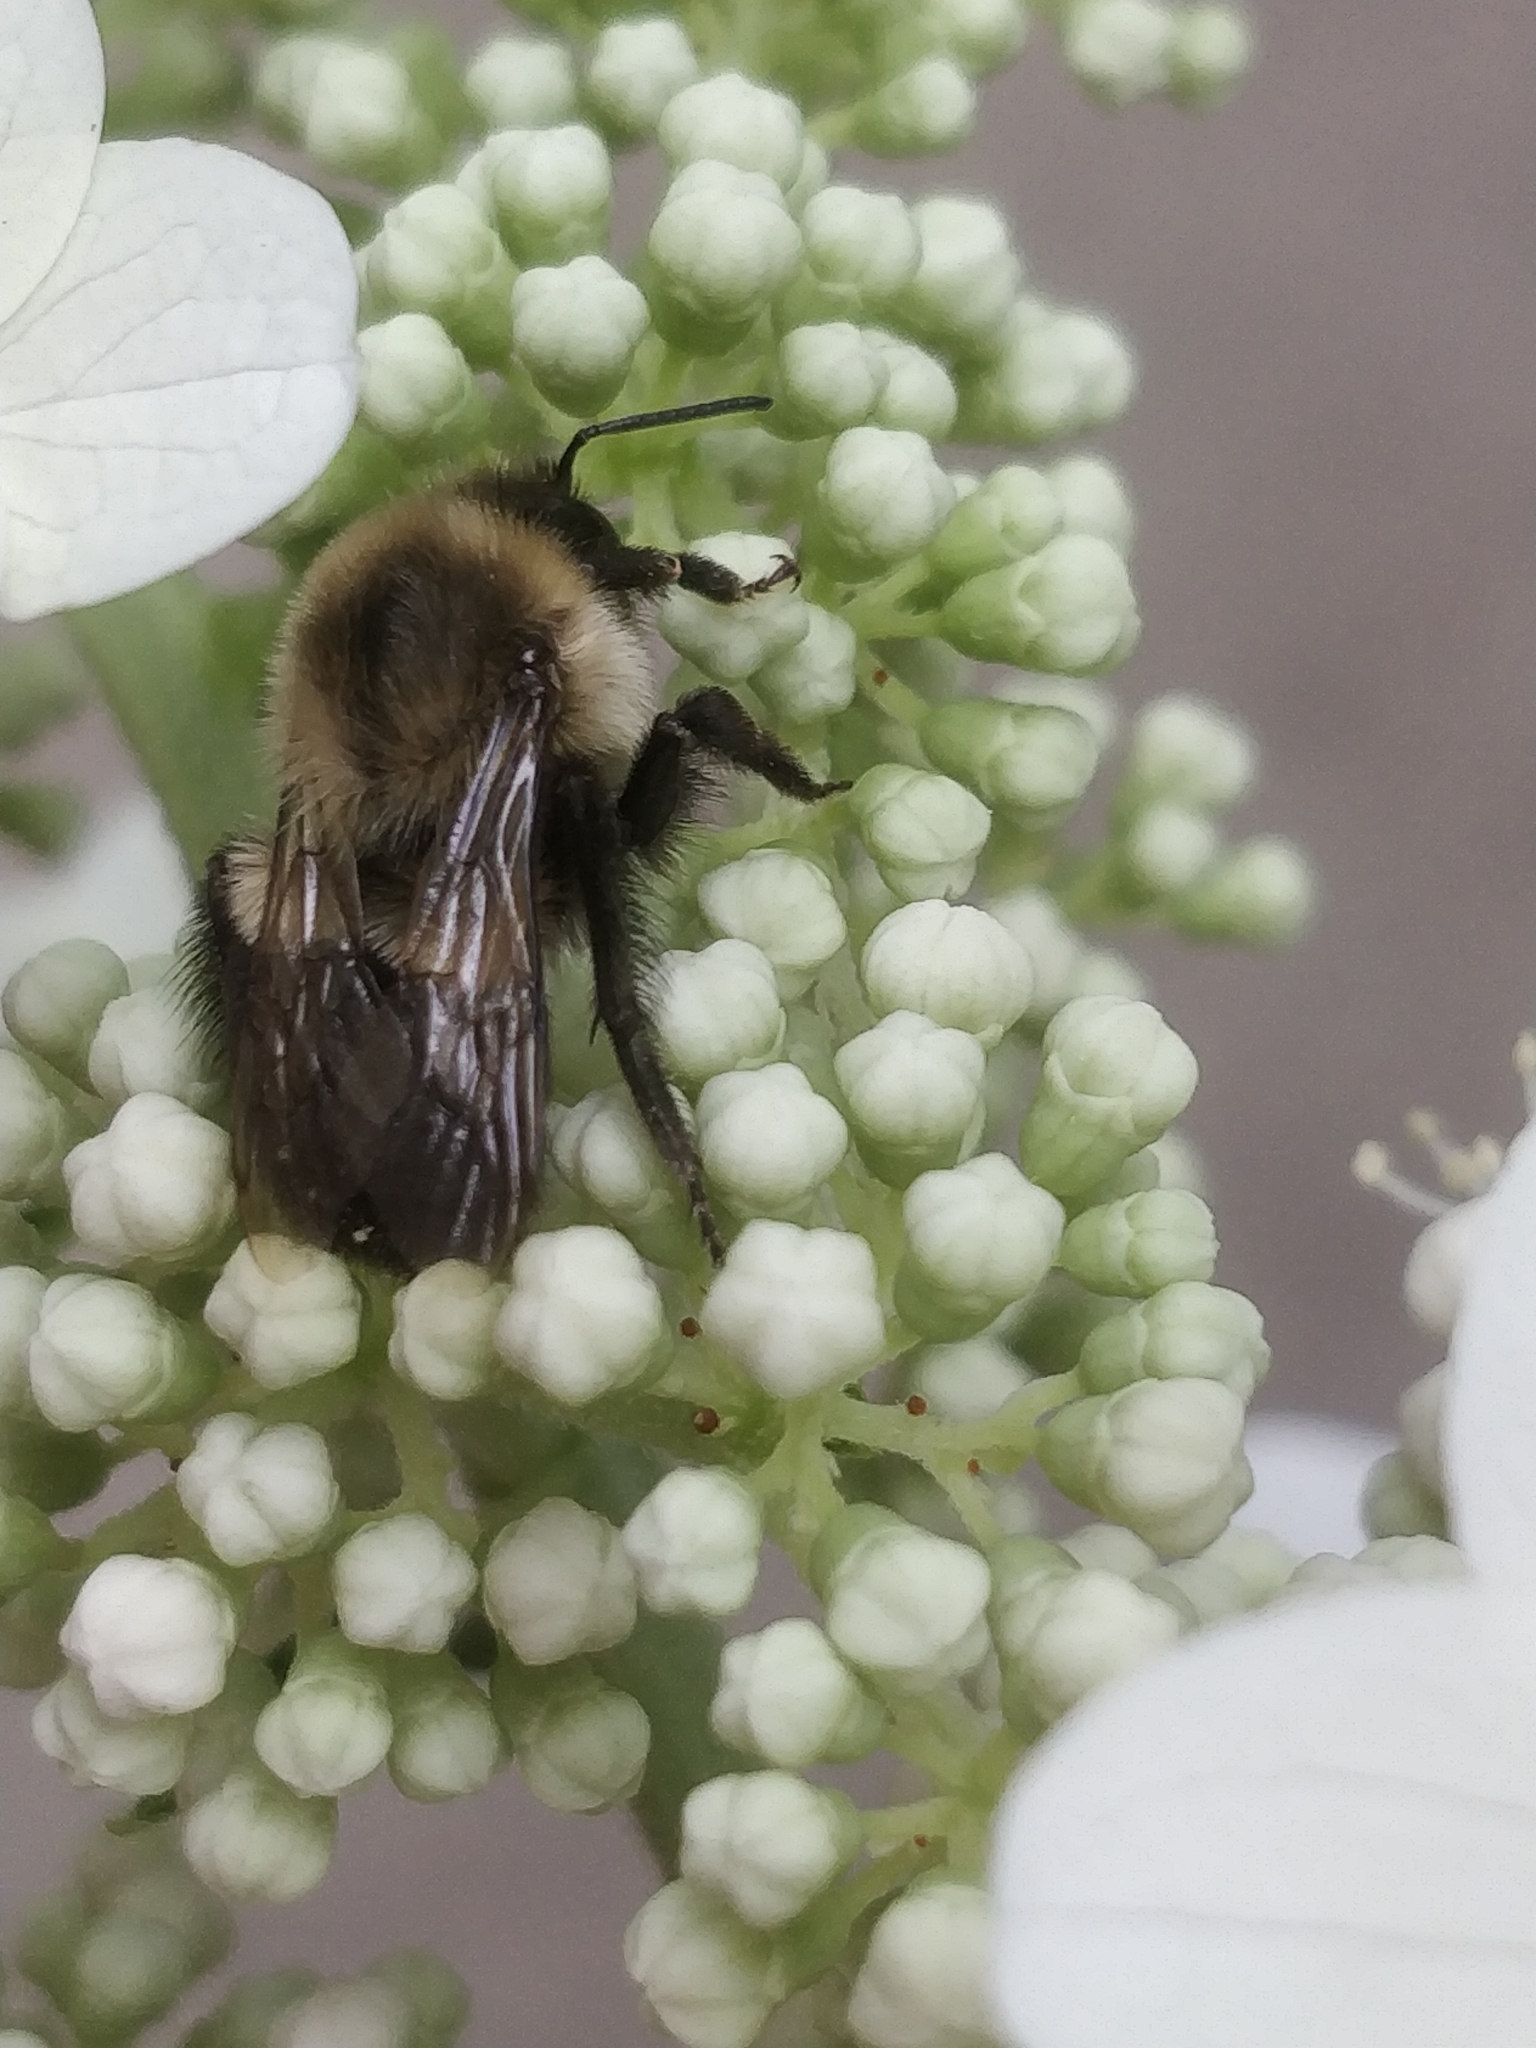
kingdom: Animalia
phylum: Arthropoda
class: Insecta
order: Hymenoptera
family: Apidae
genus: Bombus
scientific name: Bombus impatiens
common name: Common eastern bumble bee
